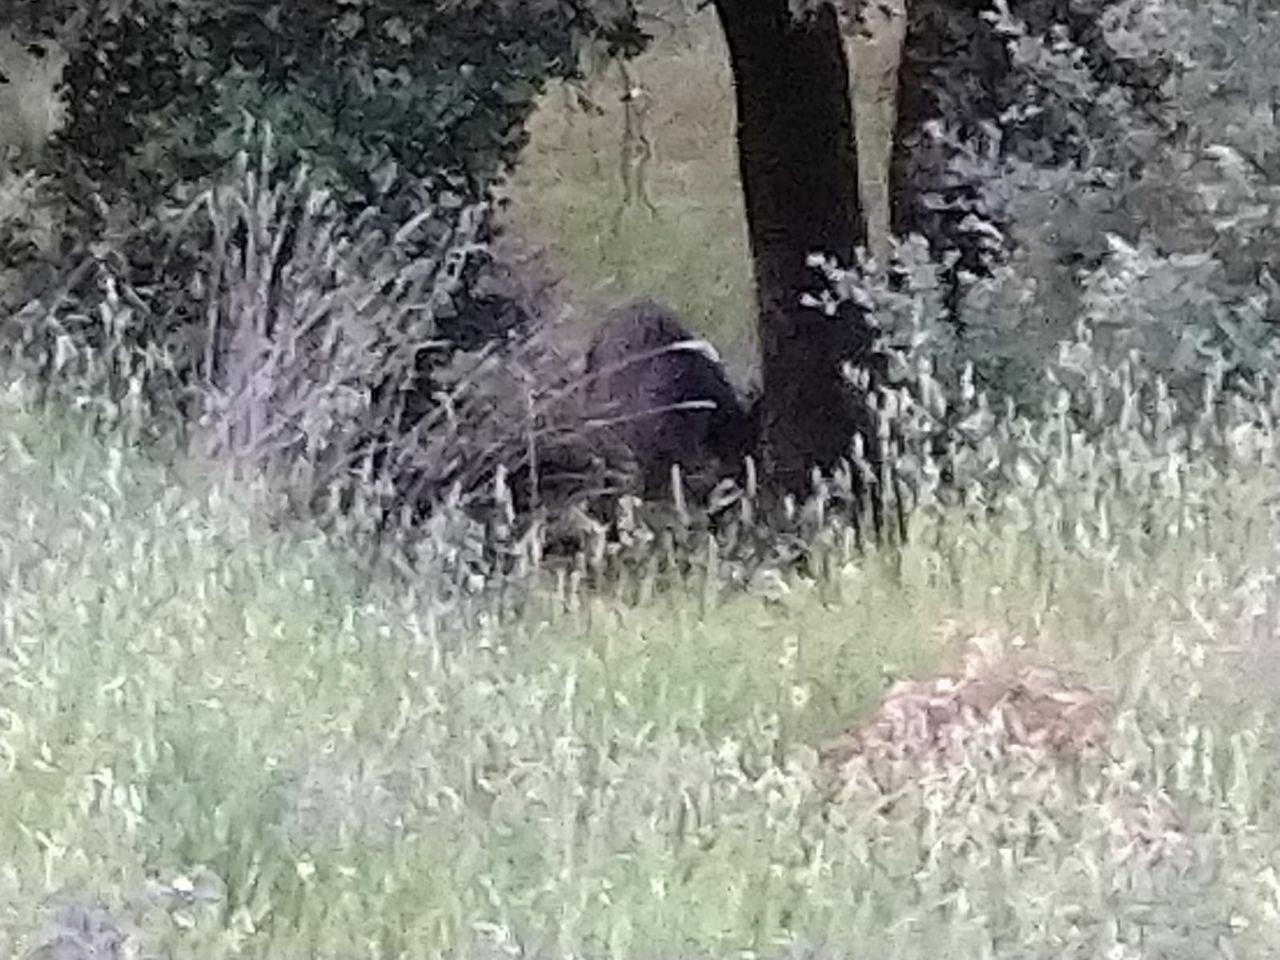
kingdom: Animalia
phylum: Chordata
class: Mammalia
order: Artiodactyla
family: Suidae
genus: Sus
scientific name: Sus scrofa
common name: Wild boar
